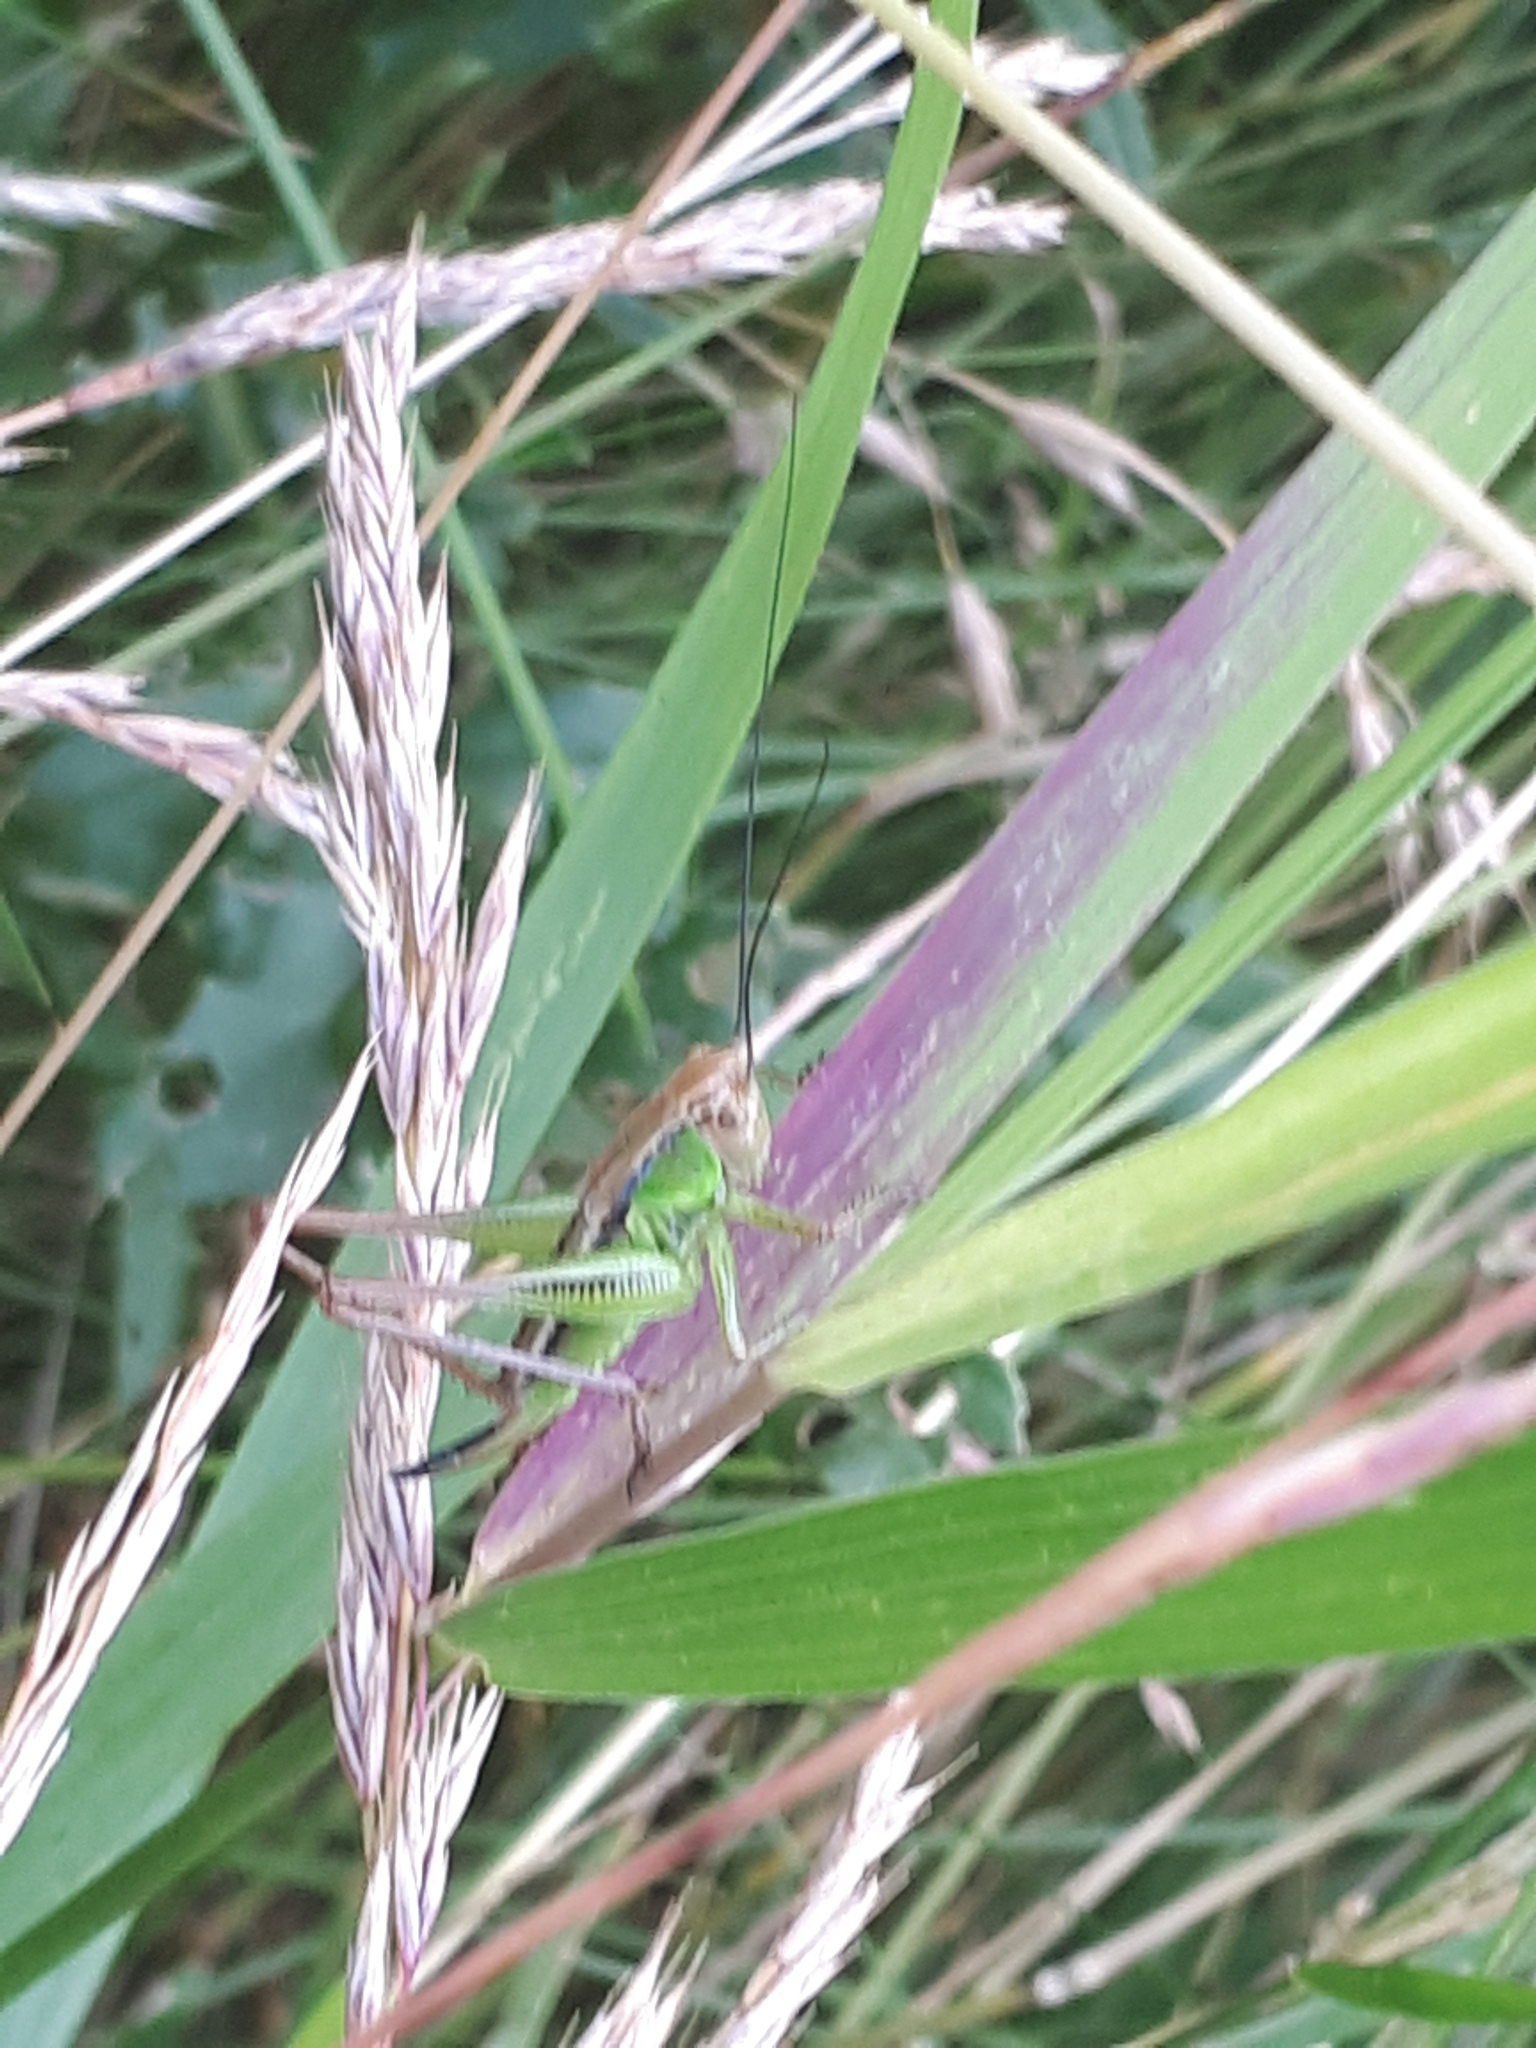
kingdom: Animalia
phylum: Arthropoda
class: Insecta
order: Orthoptera
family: Tettigoniidae
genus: Roeseliana
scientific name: Roeseliana roeselii
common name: Roesel's bush cricket
